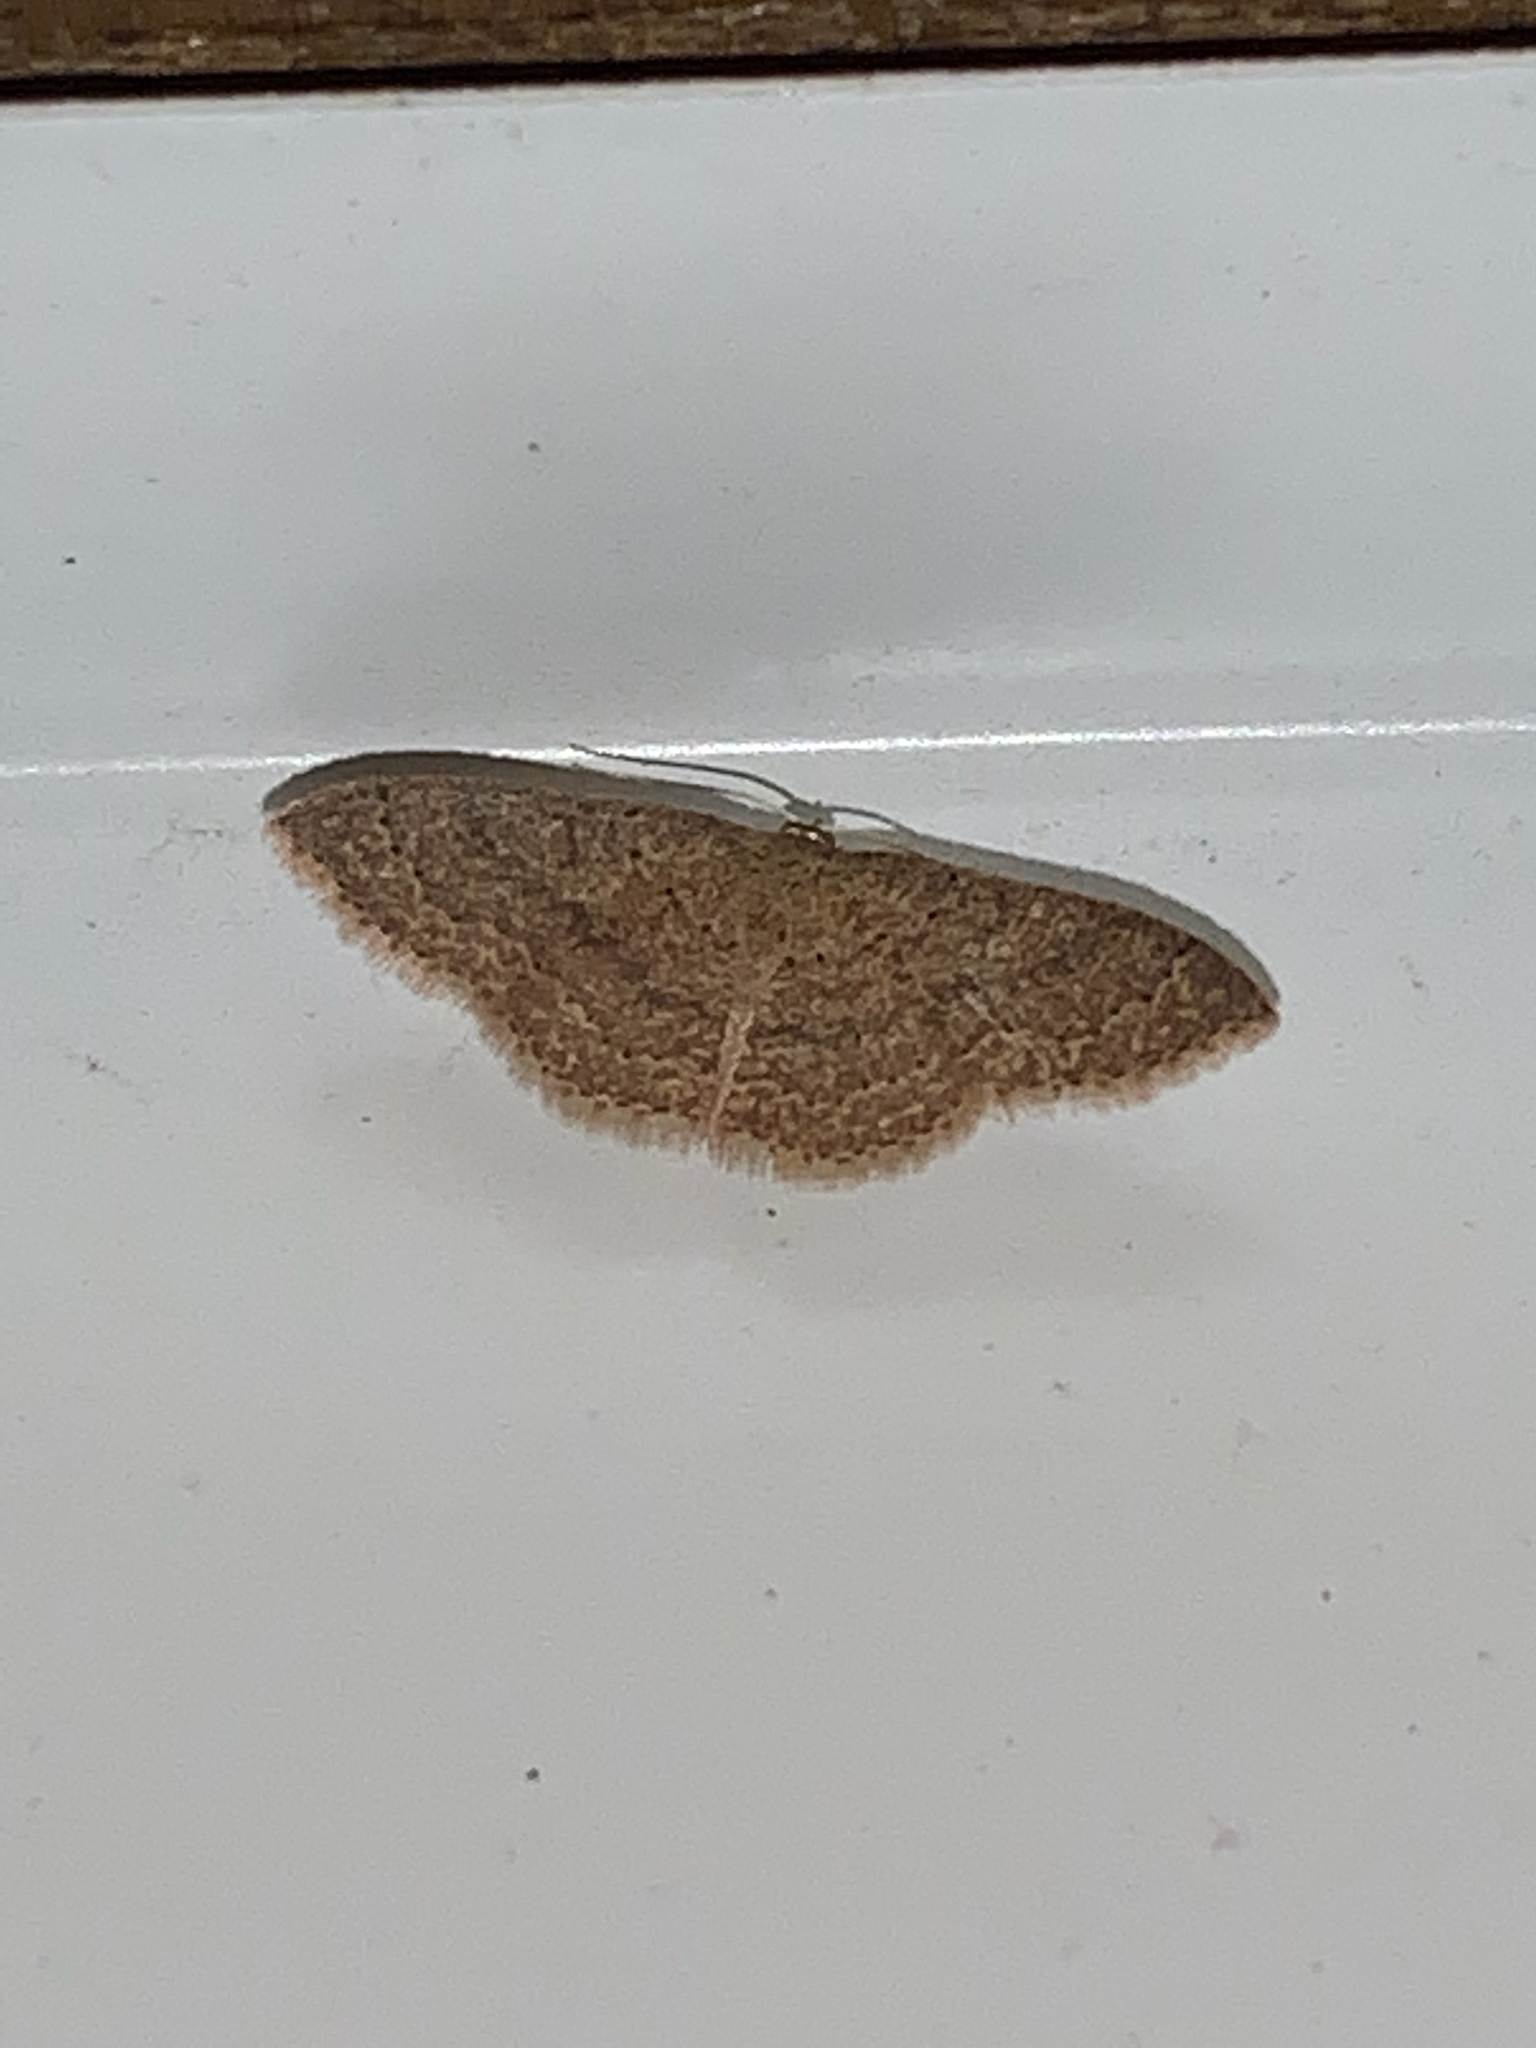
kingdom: Animalia
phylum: Arthropoda
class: Insecta
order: Lepidoptera
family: Geometridae
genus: Pleuroprucha
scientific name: Pleuroprucha insulsaria
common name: Common tan wave
